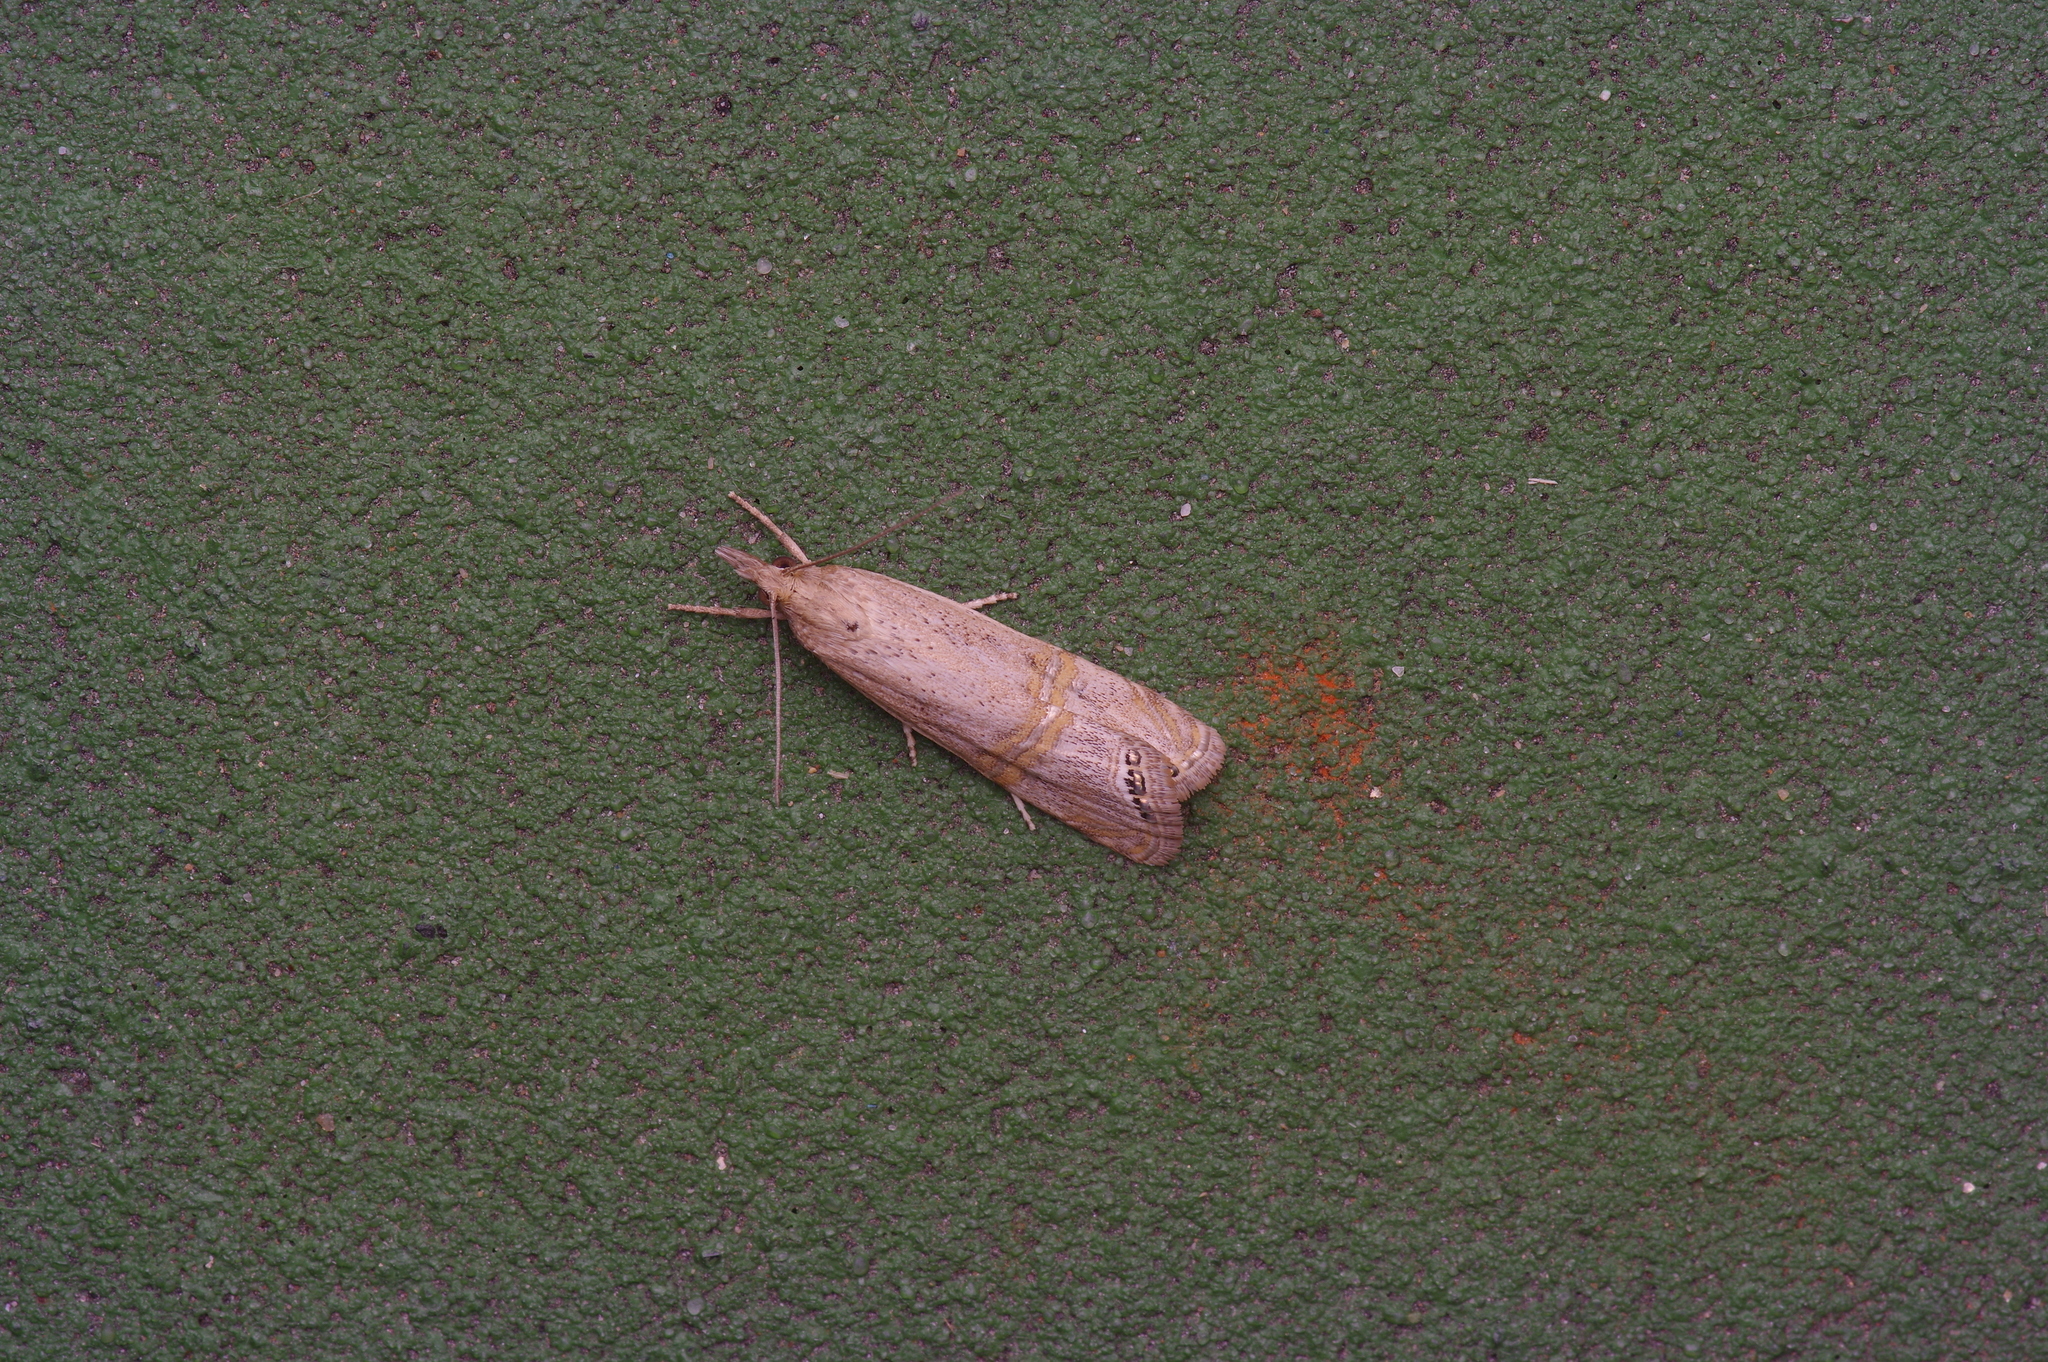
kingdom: Animalia
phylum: Arthropoda
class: Insecta
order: Lepidoptera
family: Crambidae
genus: Euchromius
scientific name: Euchromius ocellea
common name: Necklace veneer moth
